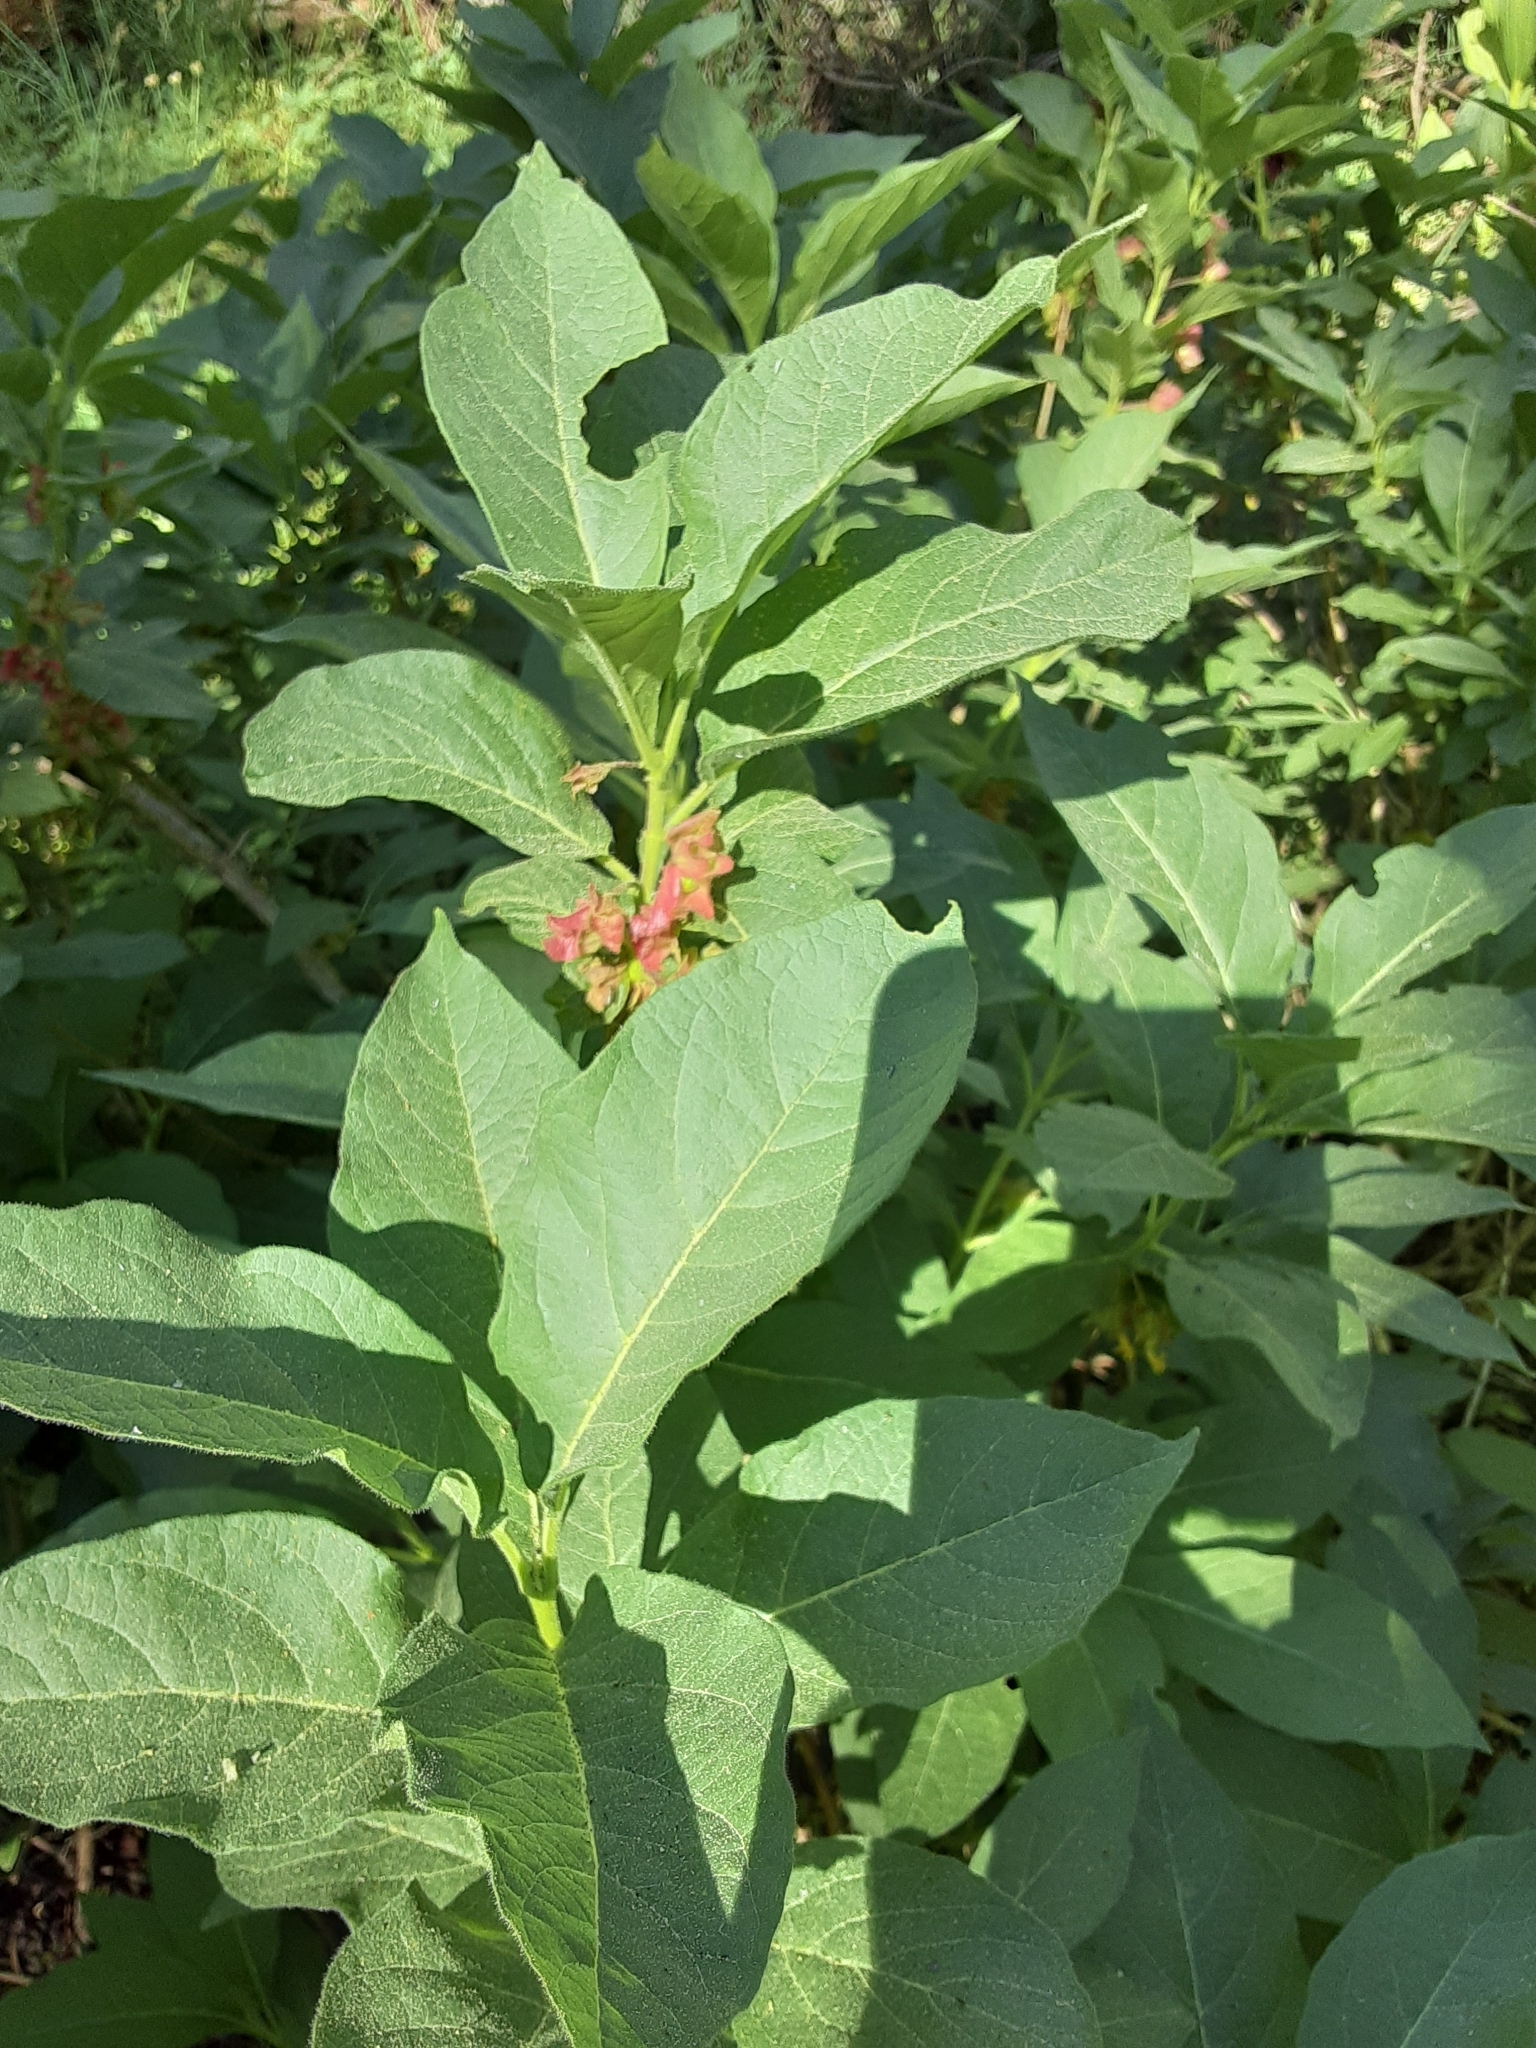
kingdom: Plantae
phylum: Tracheophyta
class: Magnoliopsida
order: Dipsacales
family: Caprifoliaceae
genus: Lonicera
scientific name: Lonicera involucrata
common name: Californian honeysuckle
